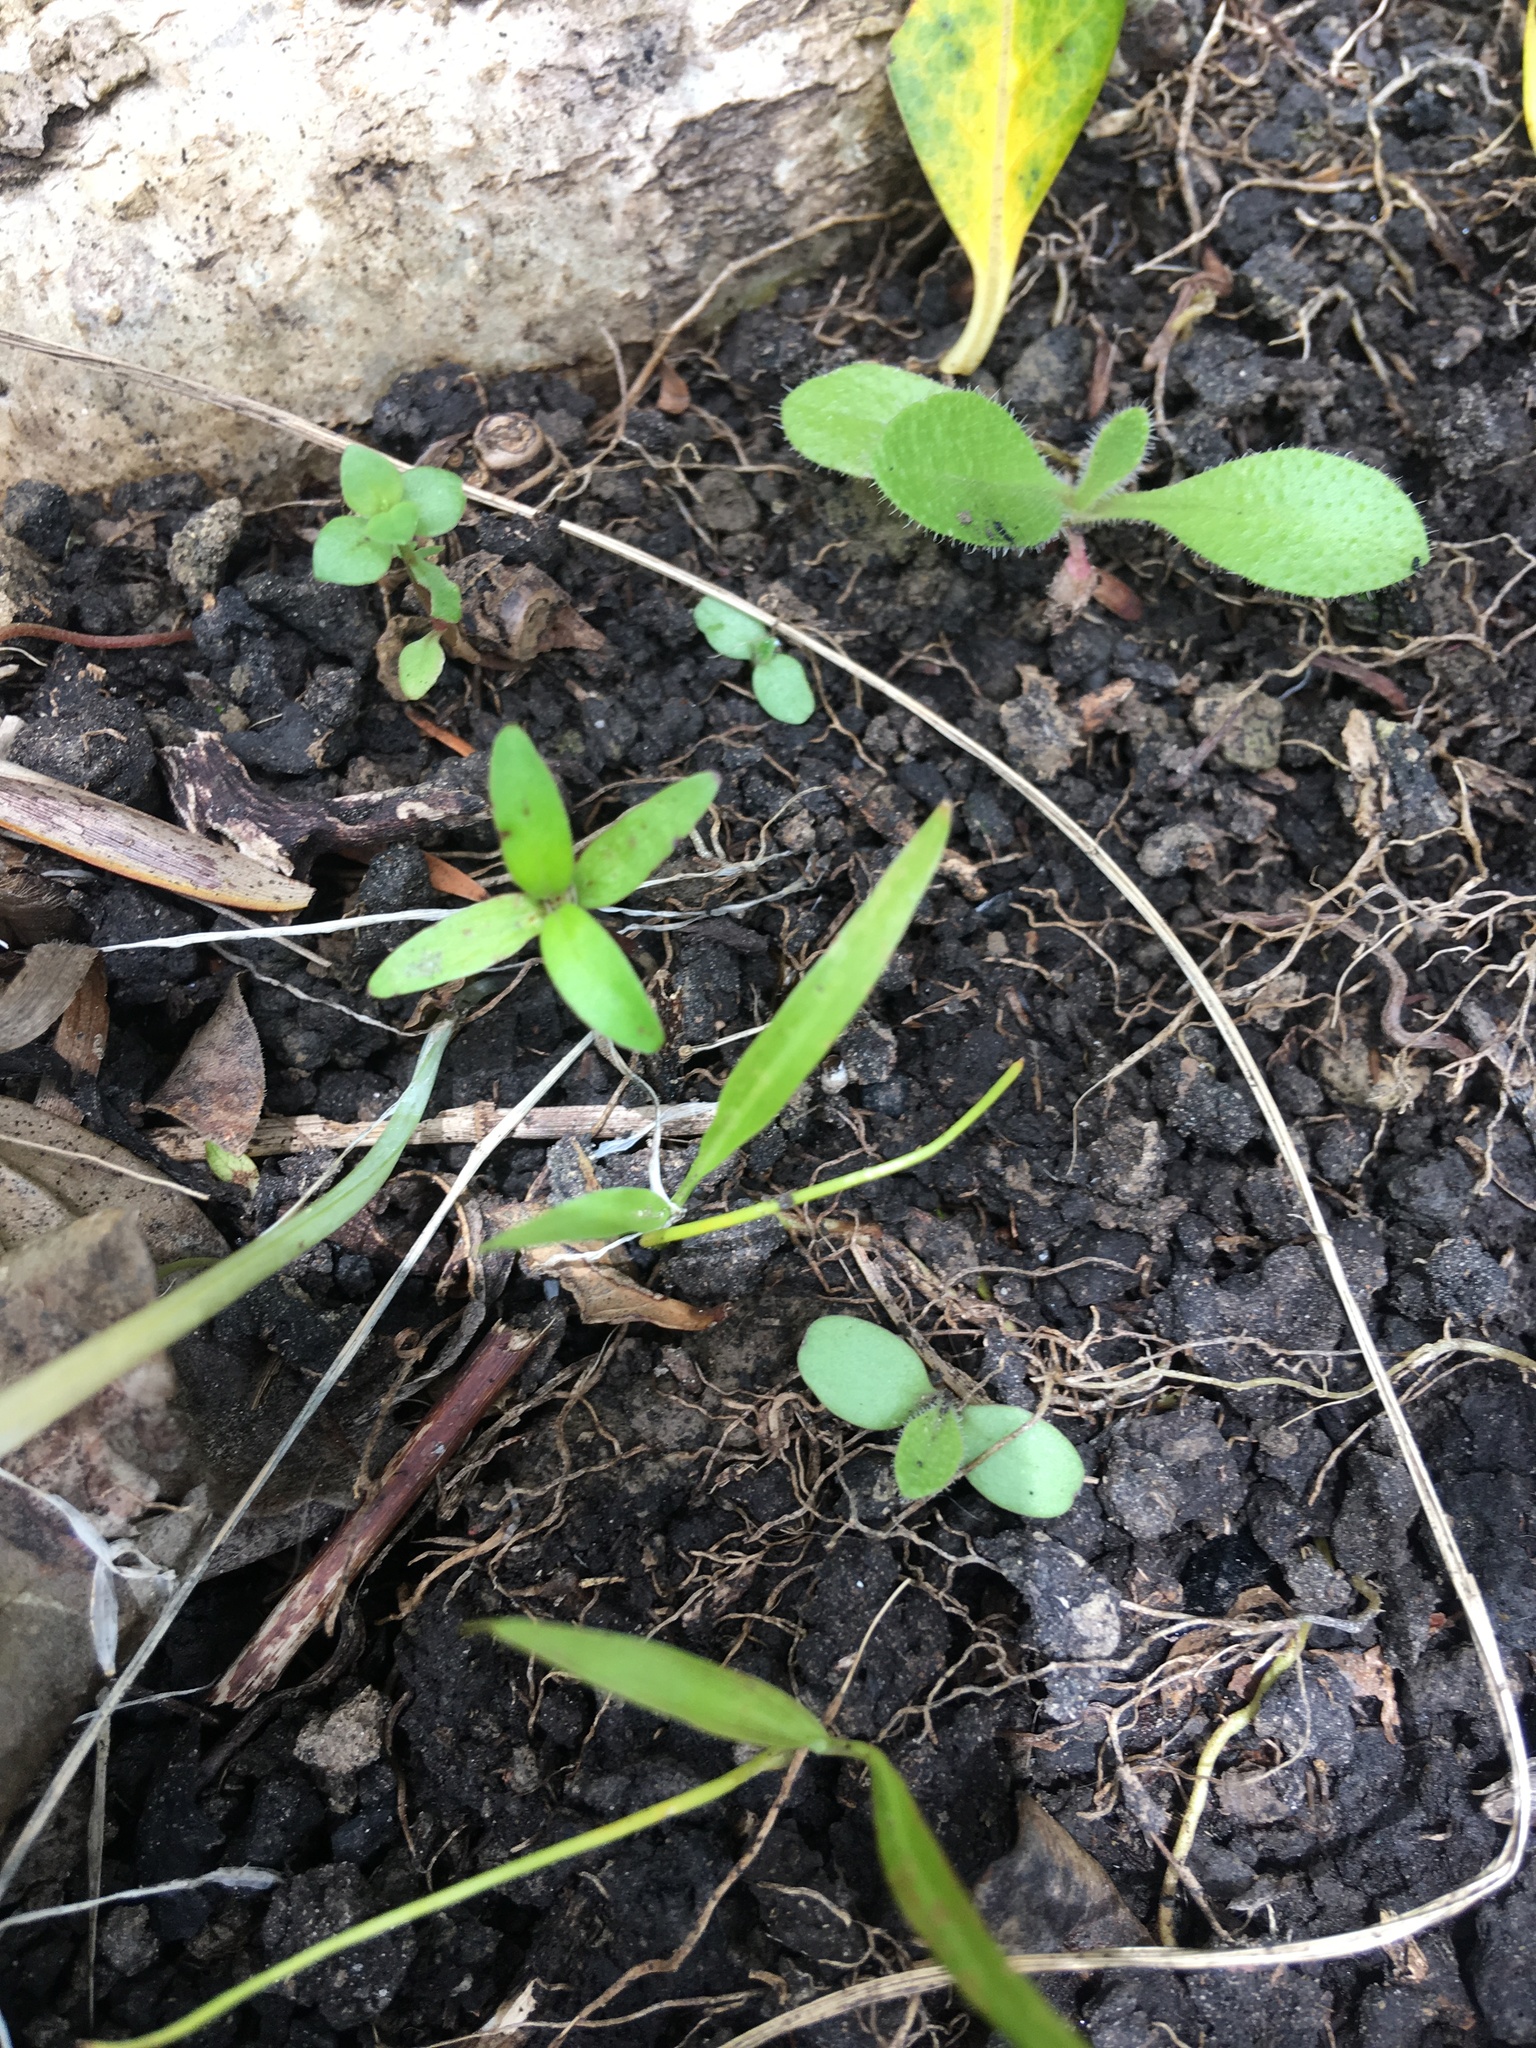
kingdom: Plantae
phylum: Tracheophyta
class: Magnoliopsida
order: Asterales
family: Asteraceae
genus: Helminthotheca
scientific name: Helminthotheca echioides
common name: Ox-tongue
